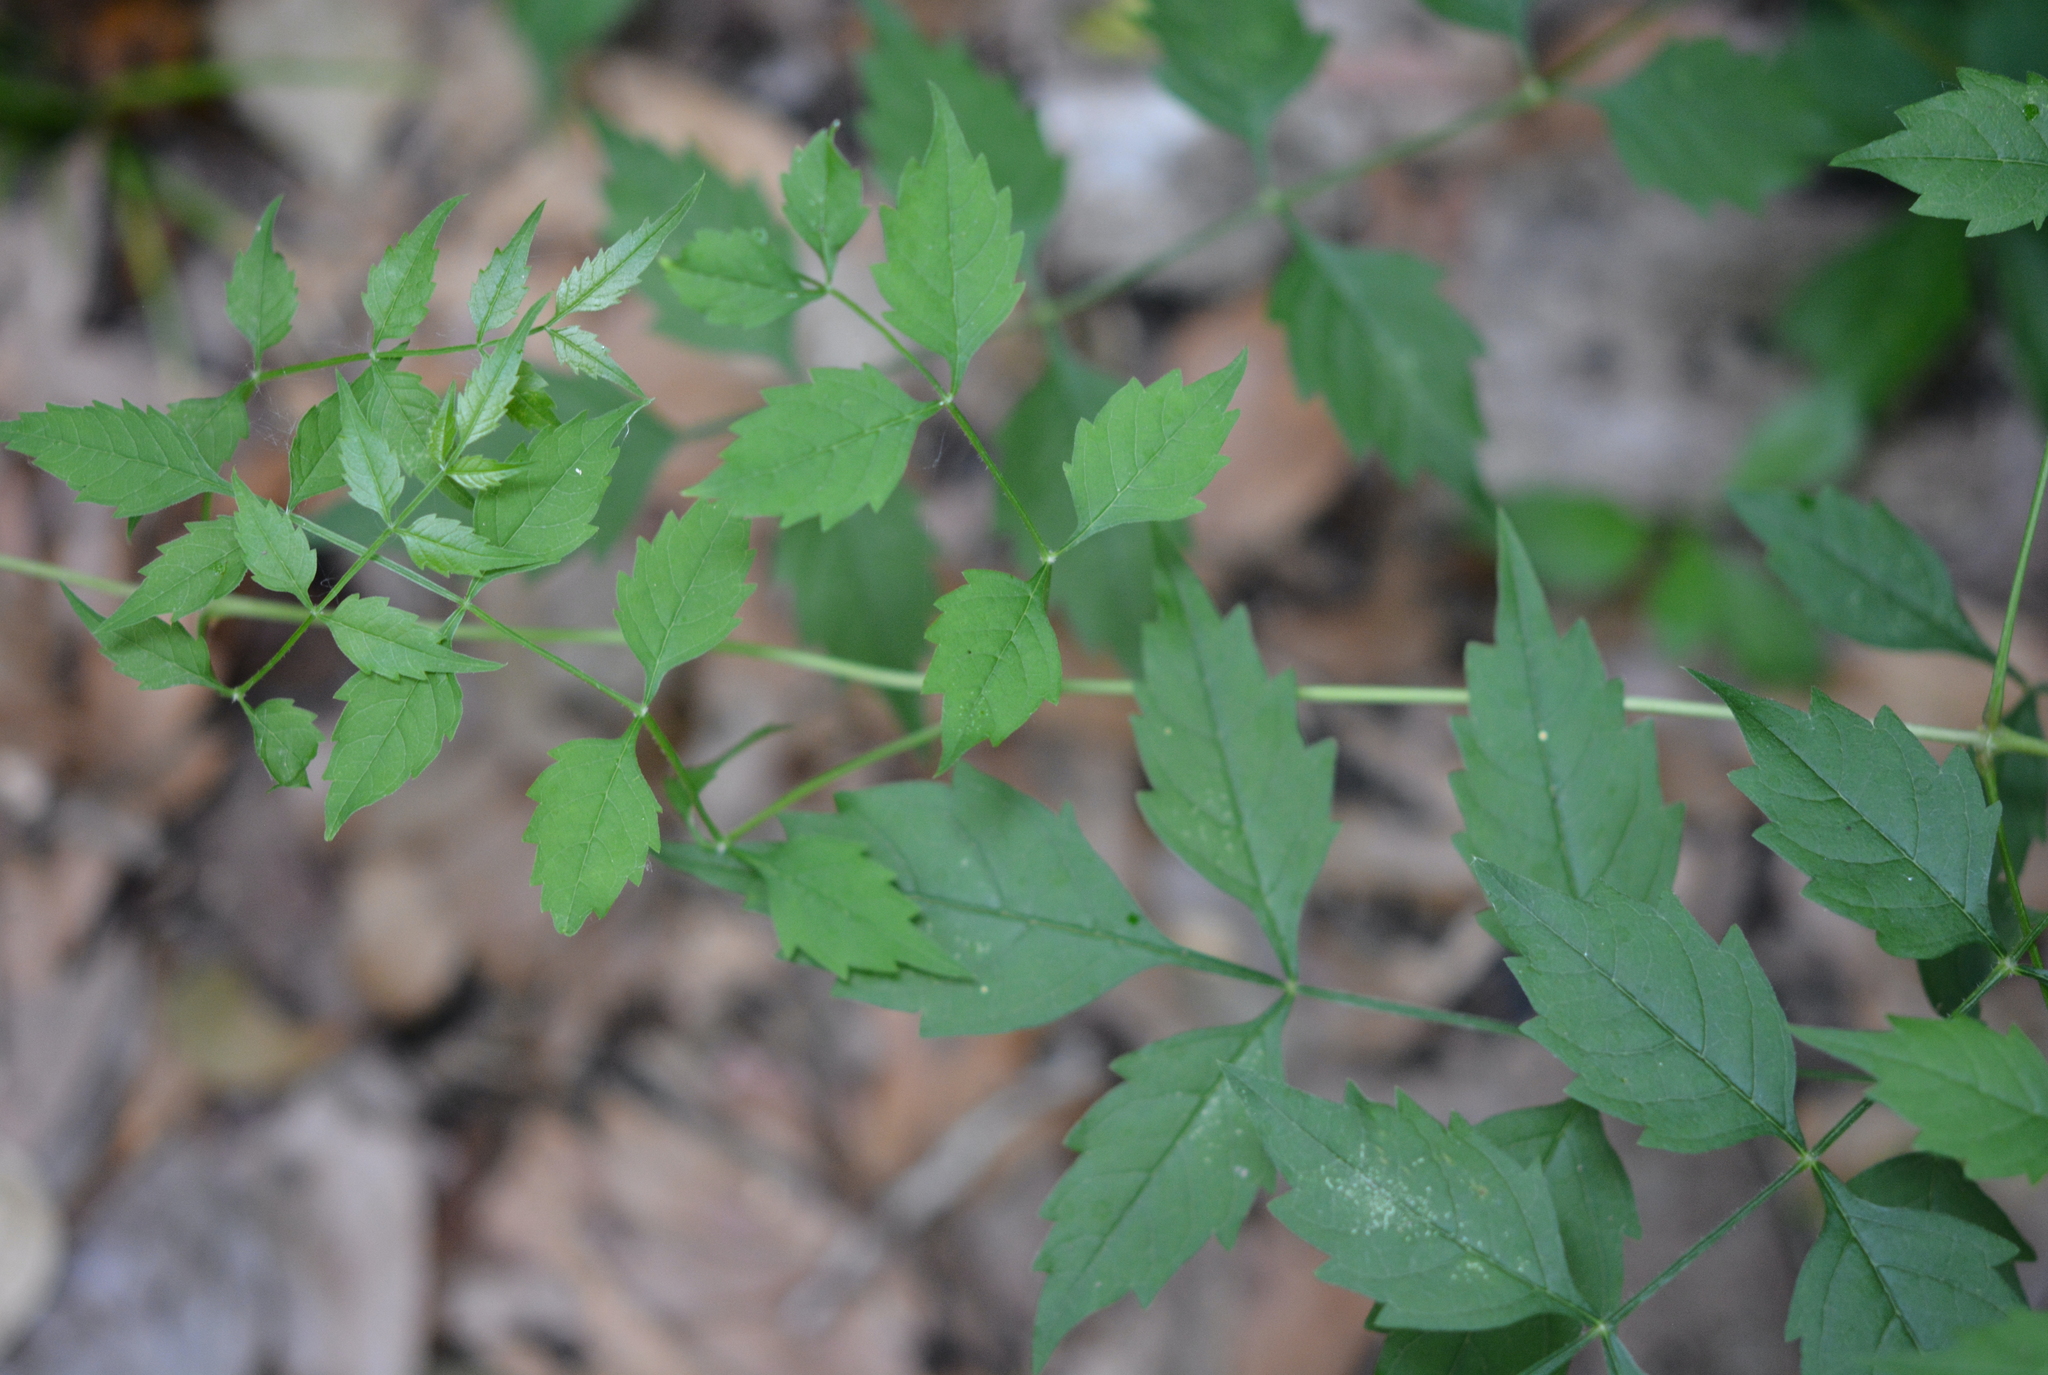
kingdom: Plantae
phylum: Tracheophyta
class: Magnoliopsida
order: Lamiales
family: Bignoniaceae
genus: Campsis
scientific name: Campsis radicans
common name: Trumpet-creeper
